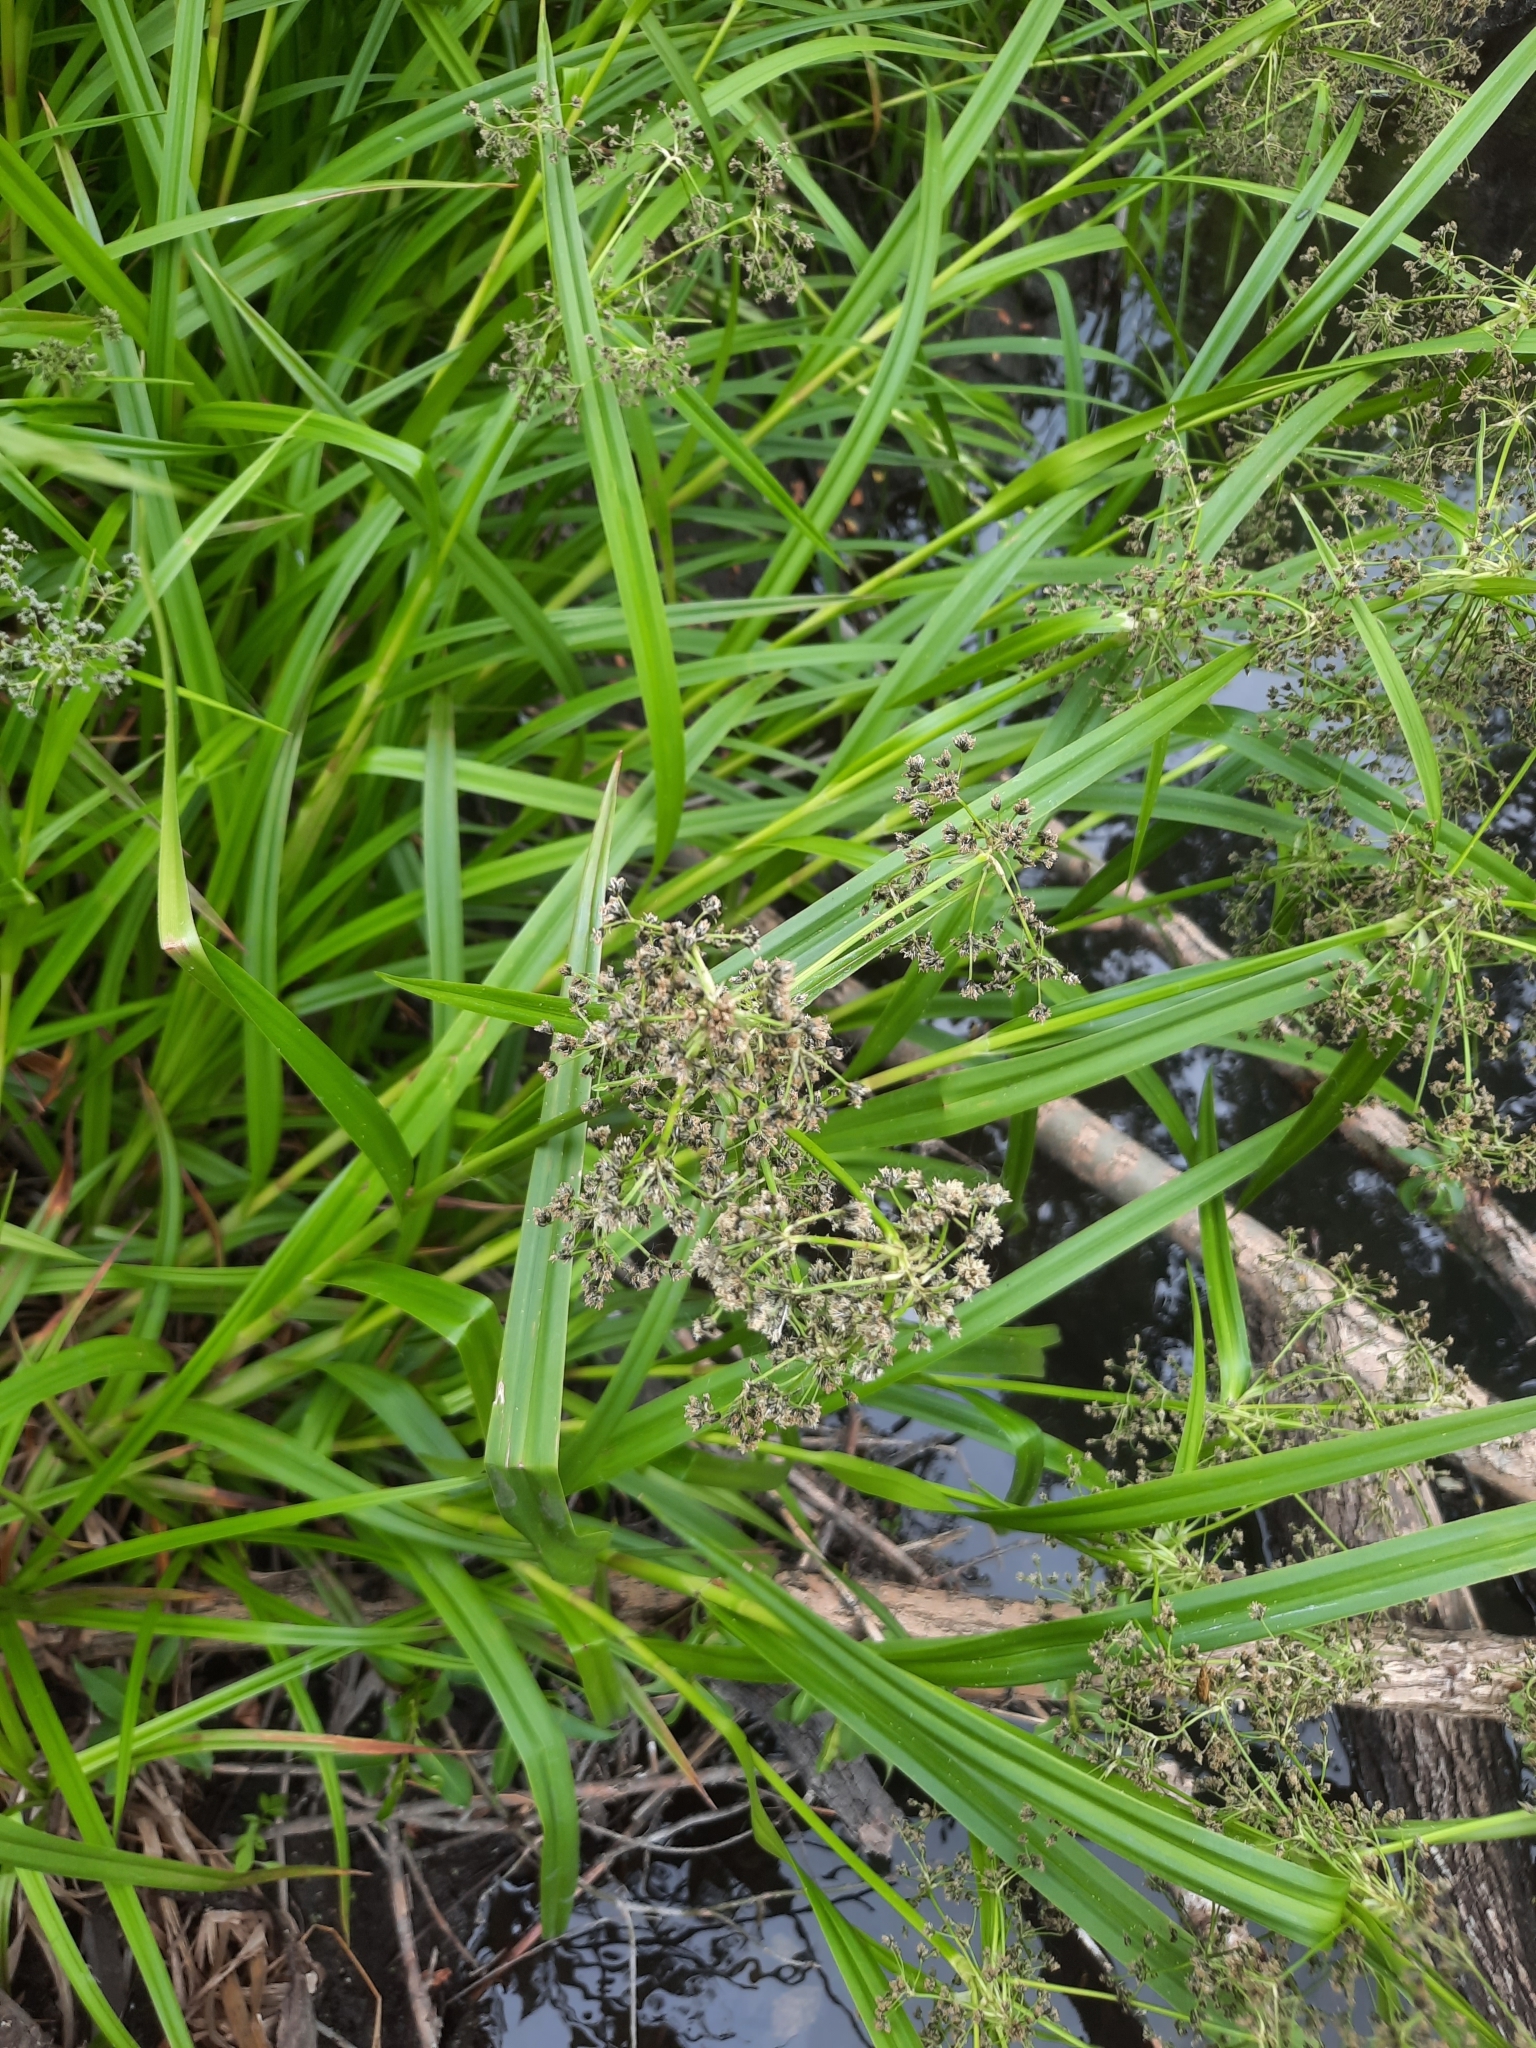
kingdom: Plantae
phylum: Tracheophyta
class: Liliopsida
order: Poales
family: Cyperaceae
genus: Scirpus
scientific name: Scirpus sylvaticus
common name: Wood club-rush
